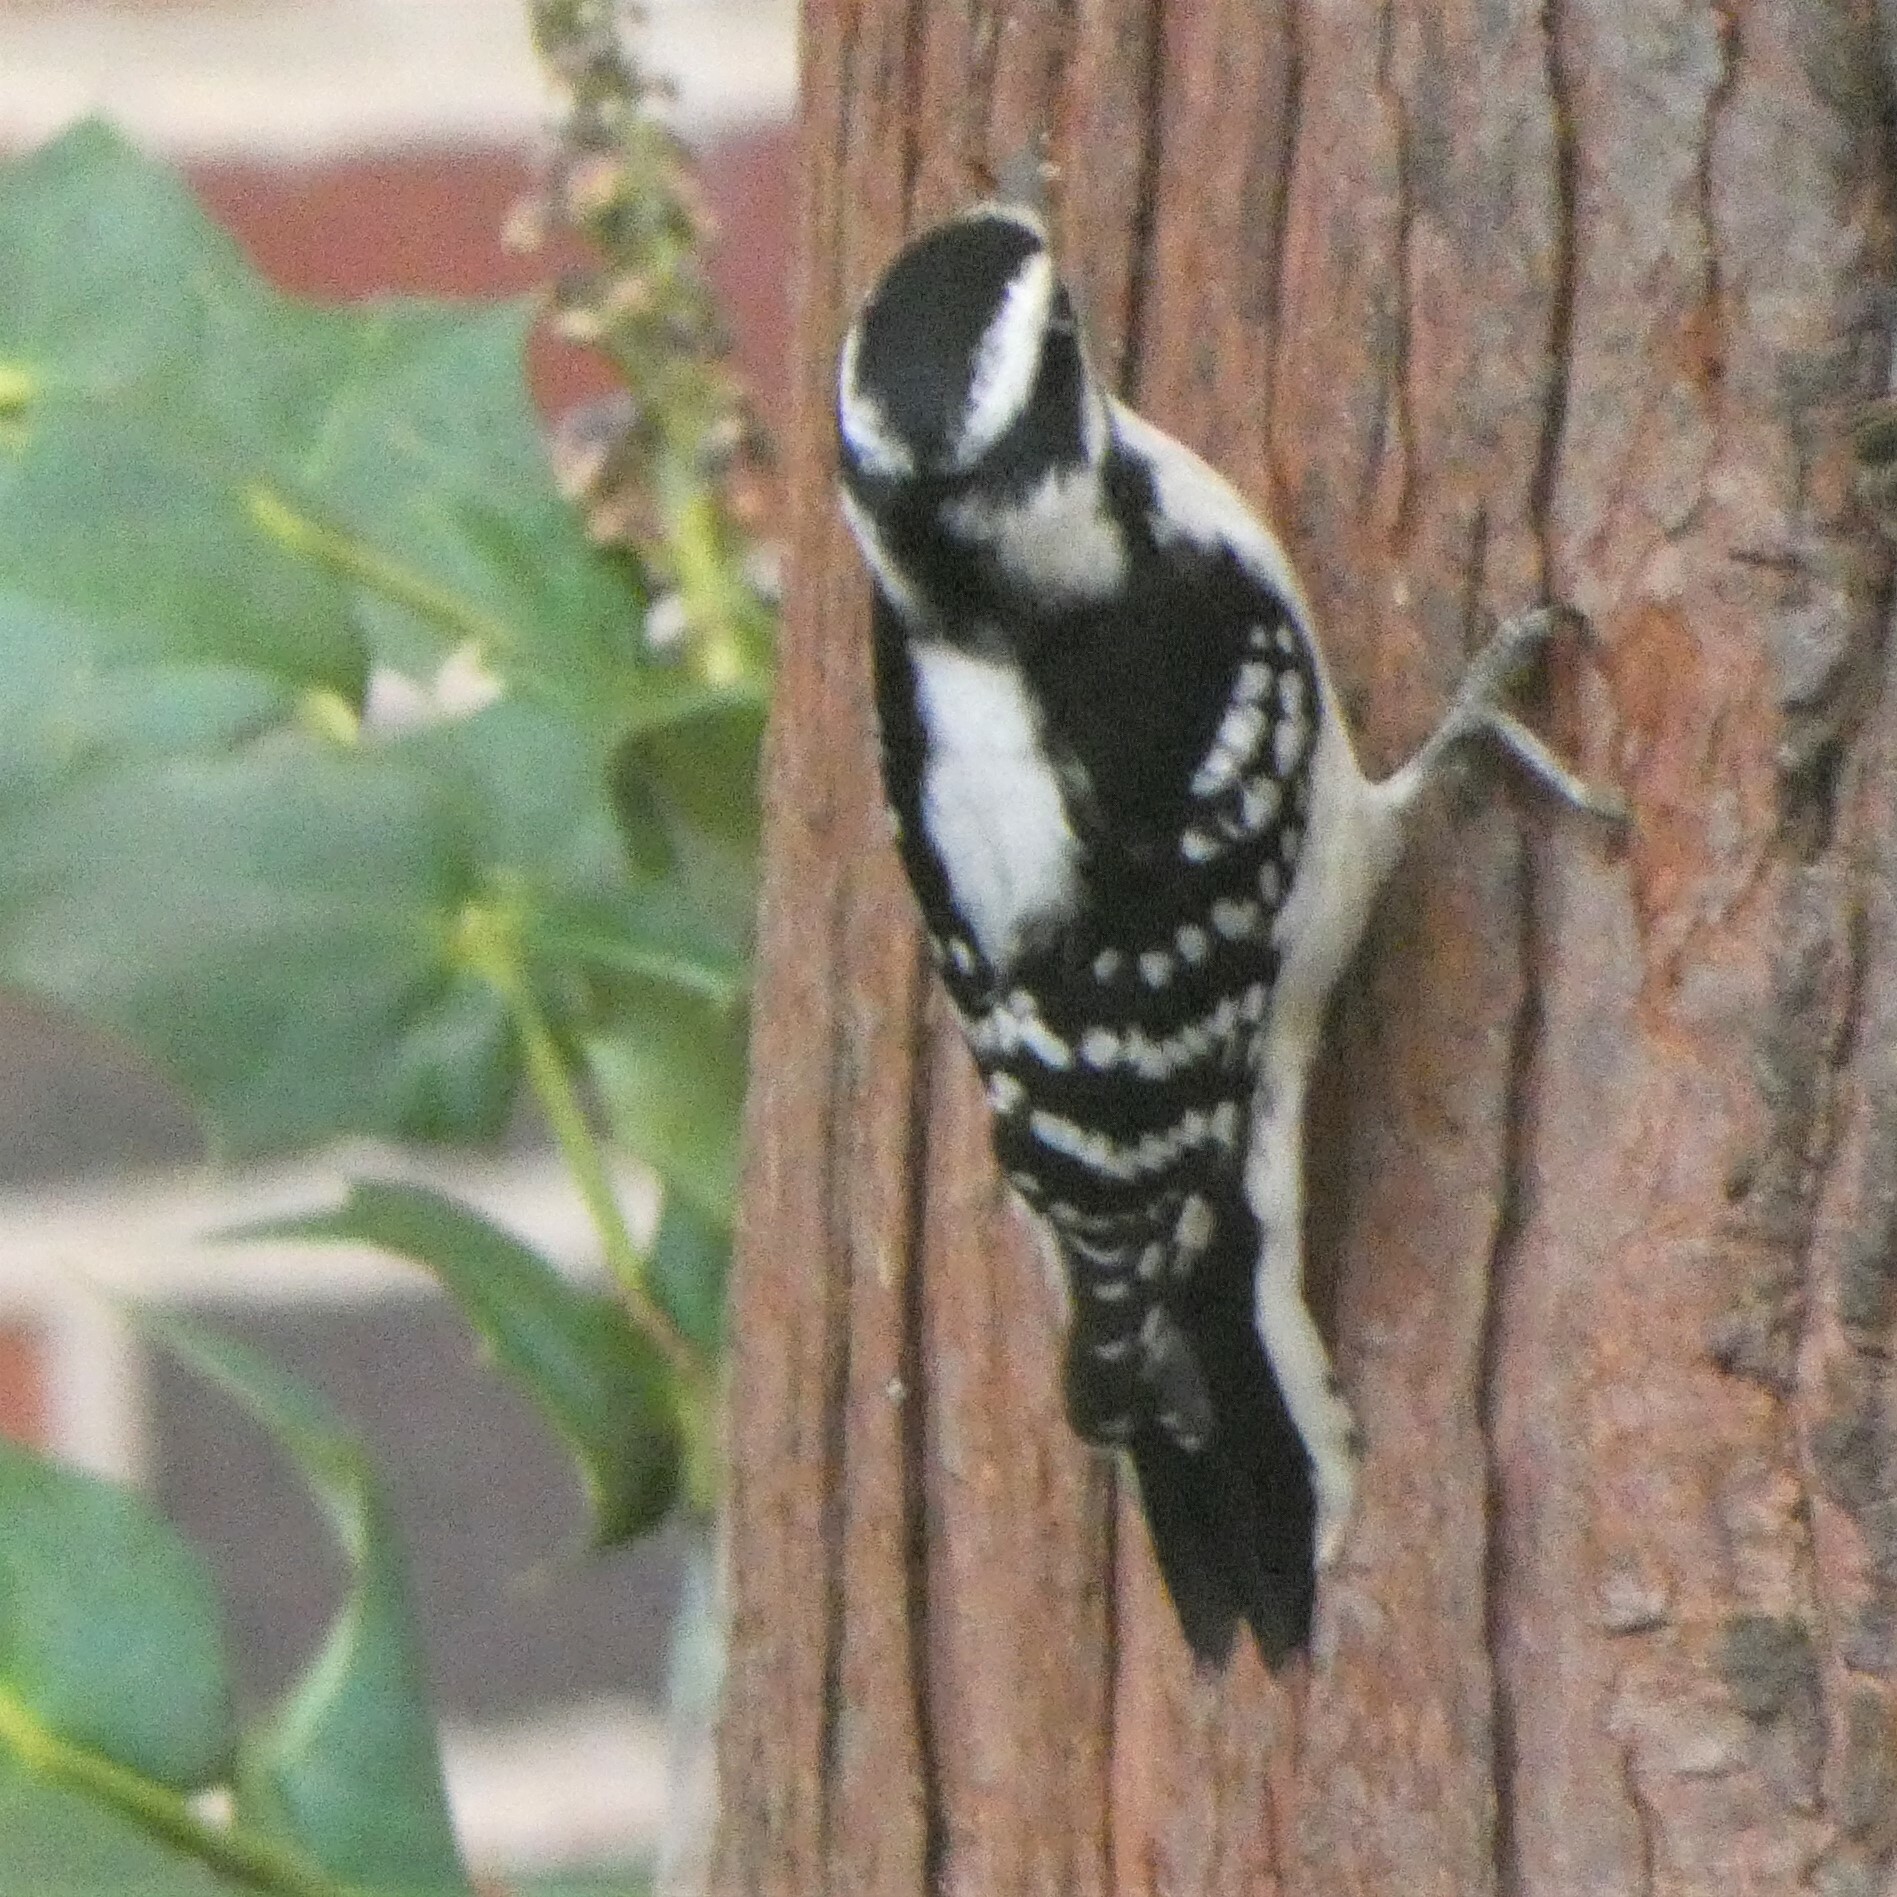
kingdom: Animalia
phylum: Chordata
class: Aves
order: Piciformes
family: Picidae
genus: Dryobates
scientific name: Dryobates pubescens
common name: Downy woodpecker
